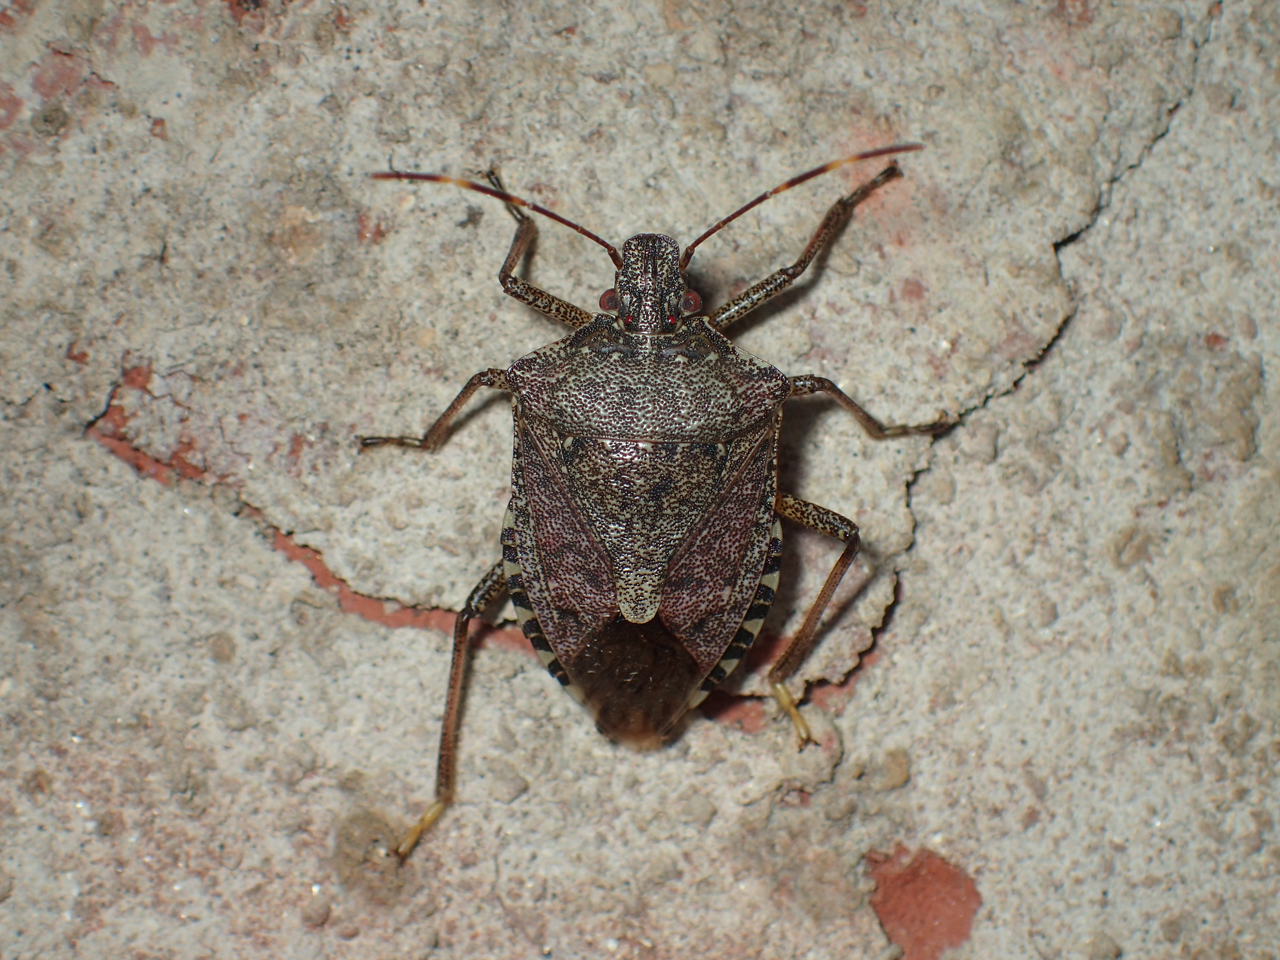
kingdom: Animalia
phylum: Arthropoda
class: Insecta
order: Hemiptera
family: Pentatomidae
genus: Halyomorpha
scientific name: Halyomorpha halys
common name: Brown marmorated stink bug
